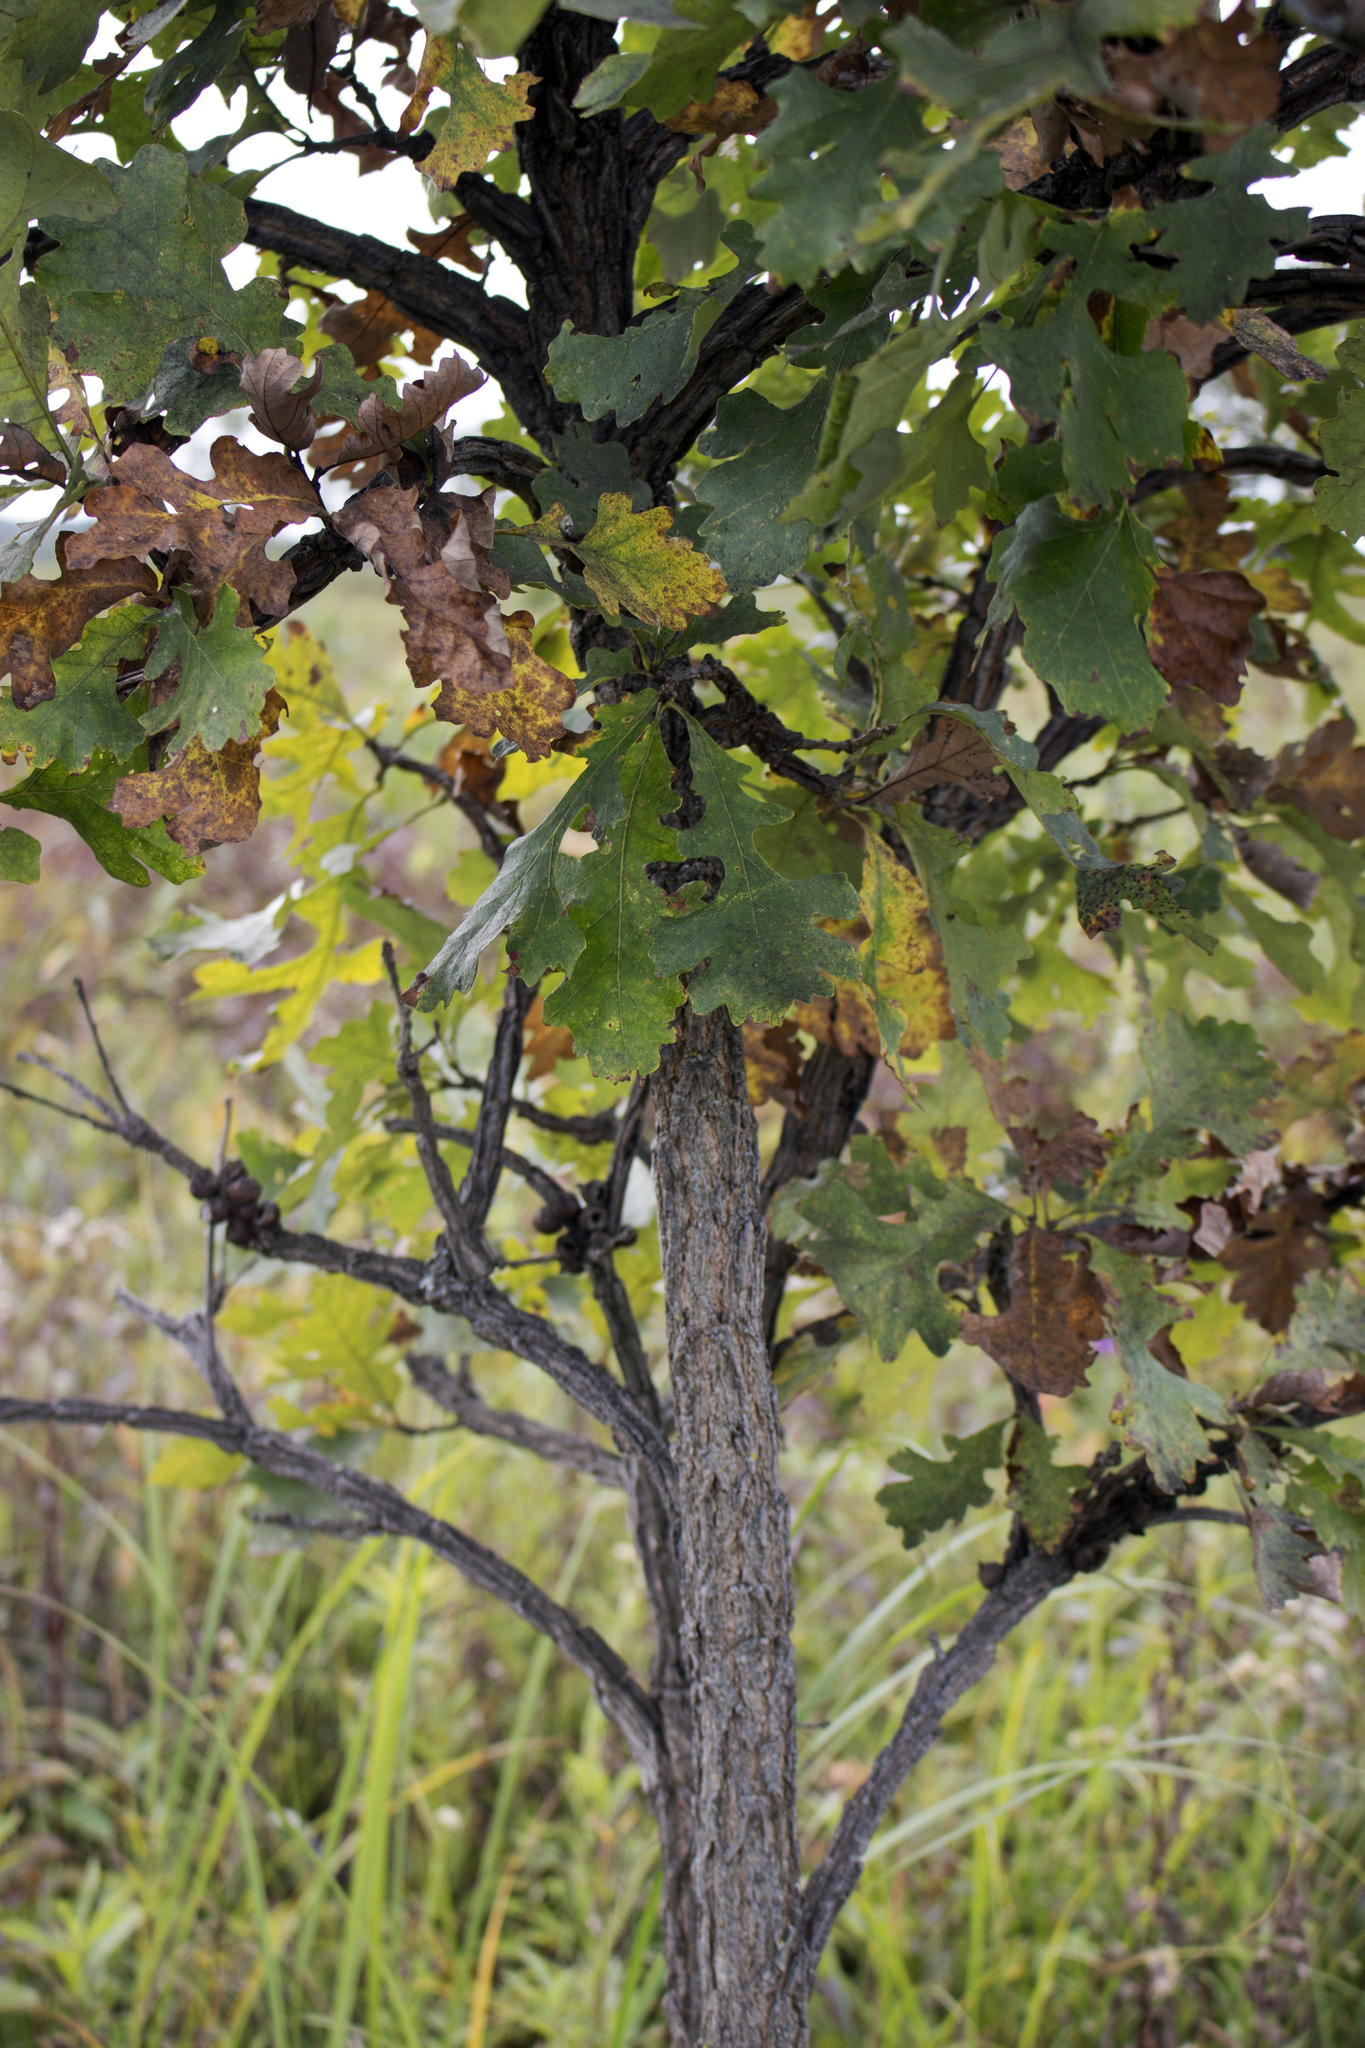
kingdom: Plantae
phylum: Tracheophyta
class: Magnoliopsida
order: Fagales
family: Fagaceae
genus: Quercus
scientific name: Quercus macrocarpa
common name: Bur oak
